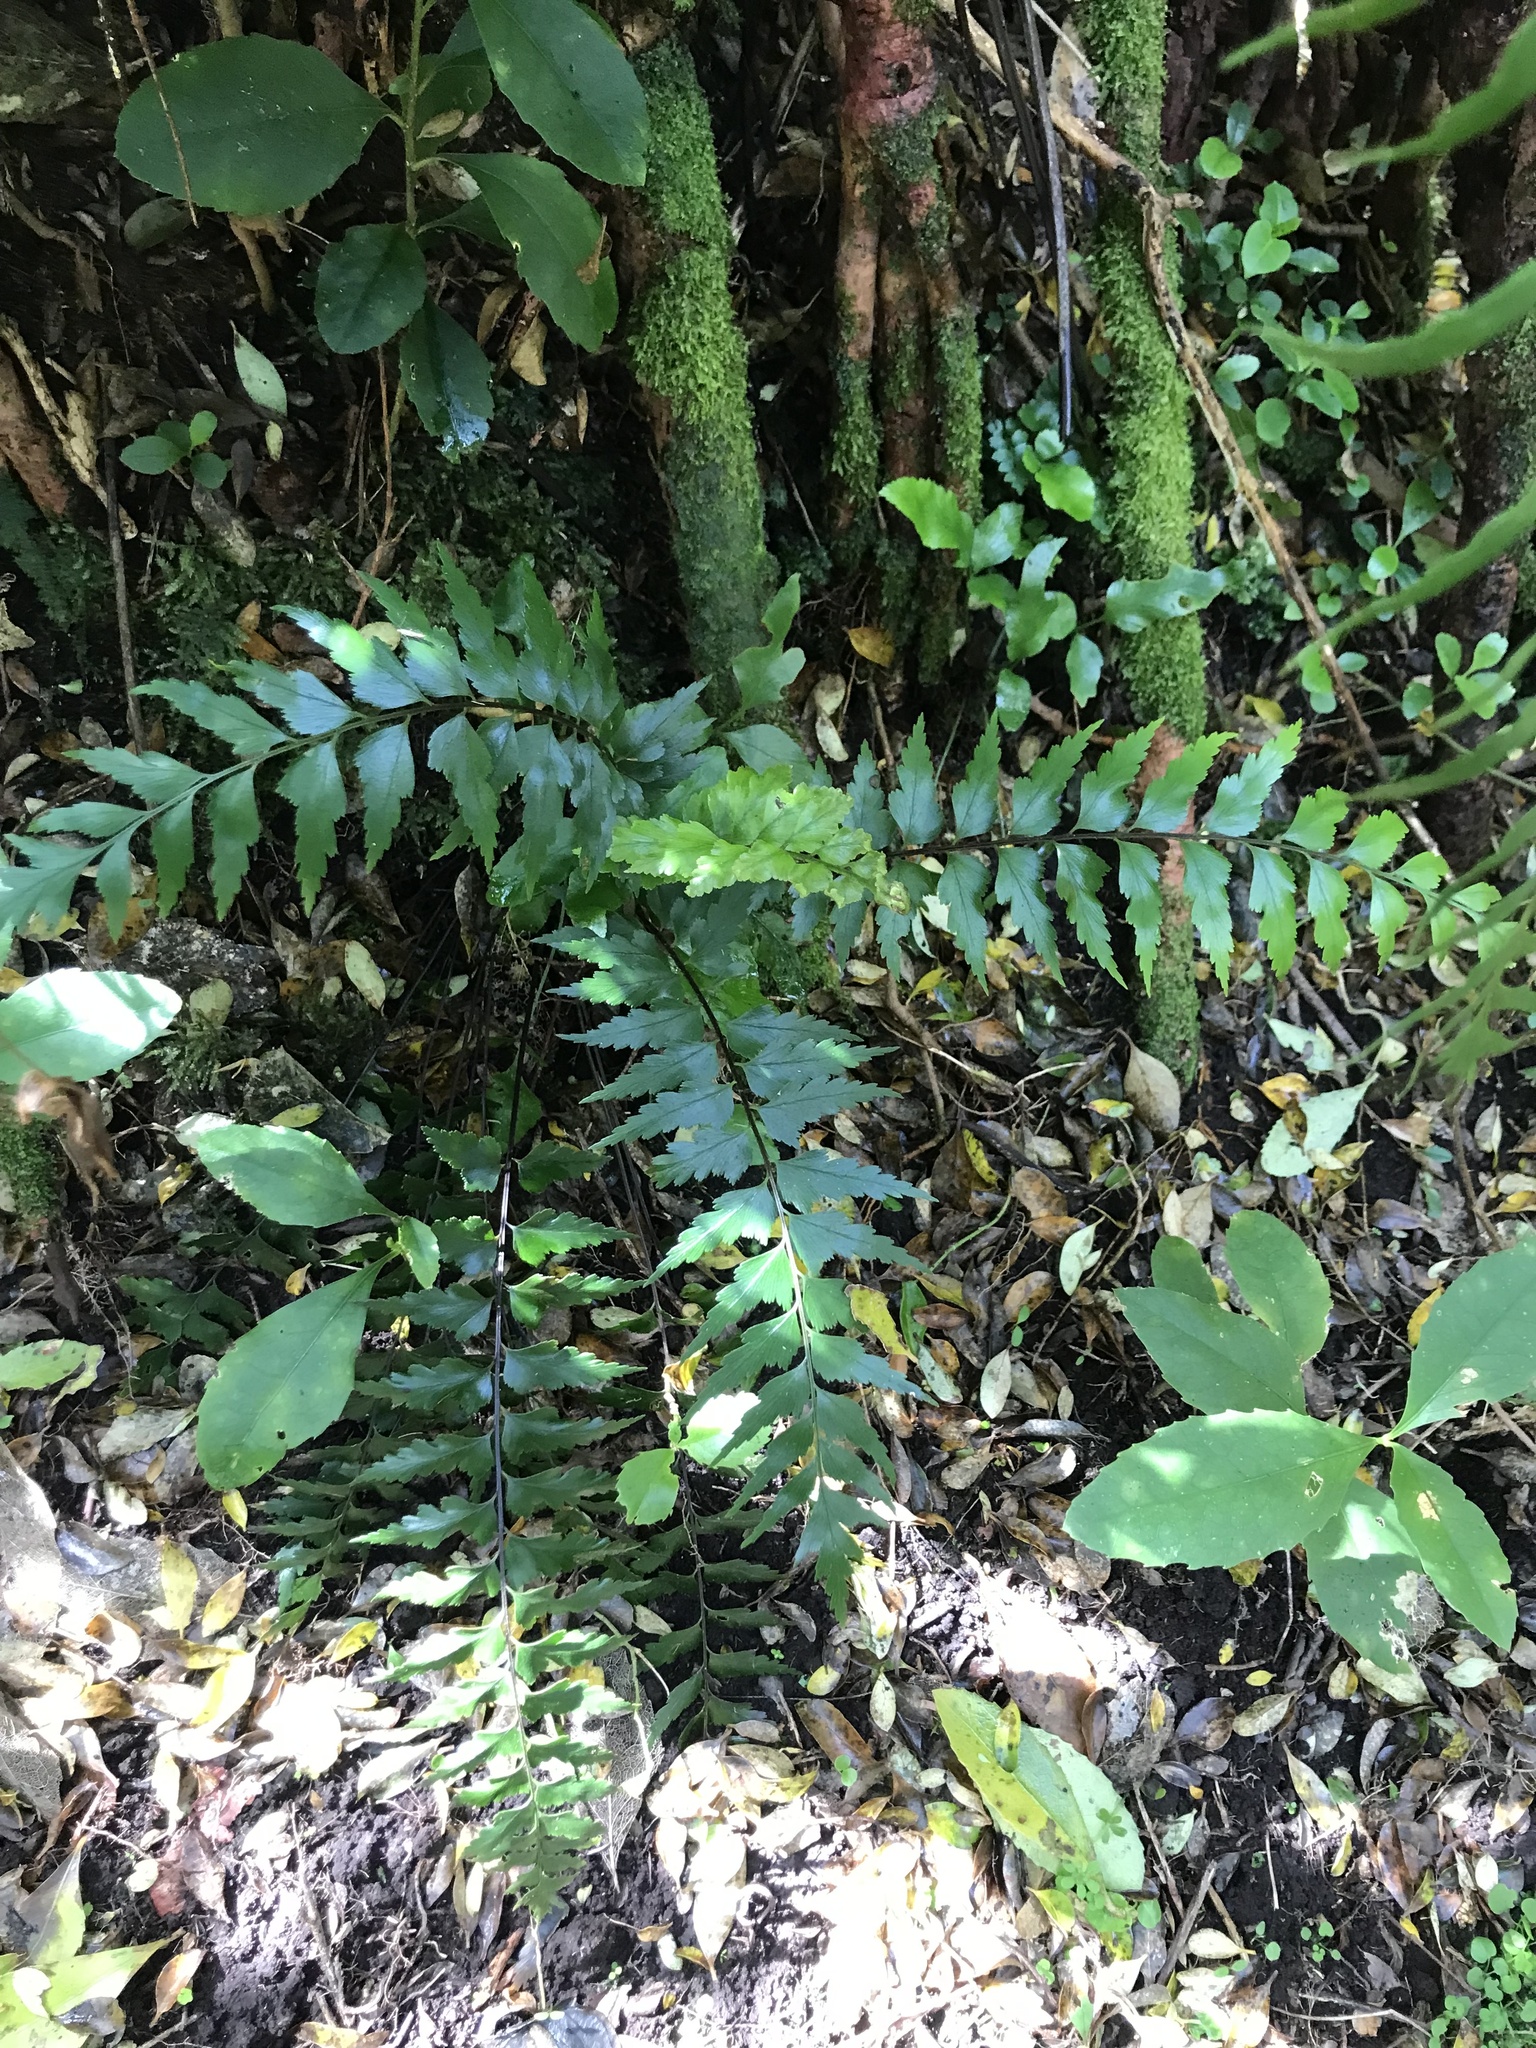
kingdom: Plantae
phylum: Tracheophyta
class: Polypodiopsida
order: Polypodiales
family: Aspleniaceae
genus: Asplenium
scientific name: Asplenium polyodon
